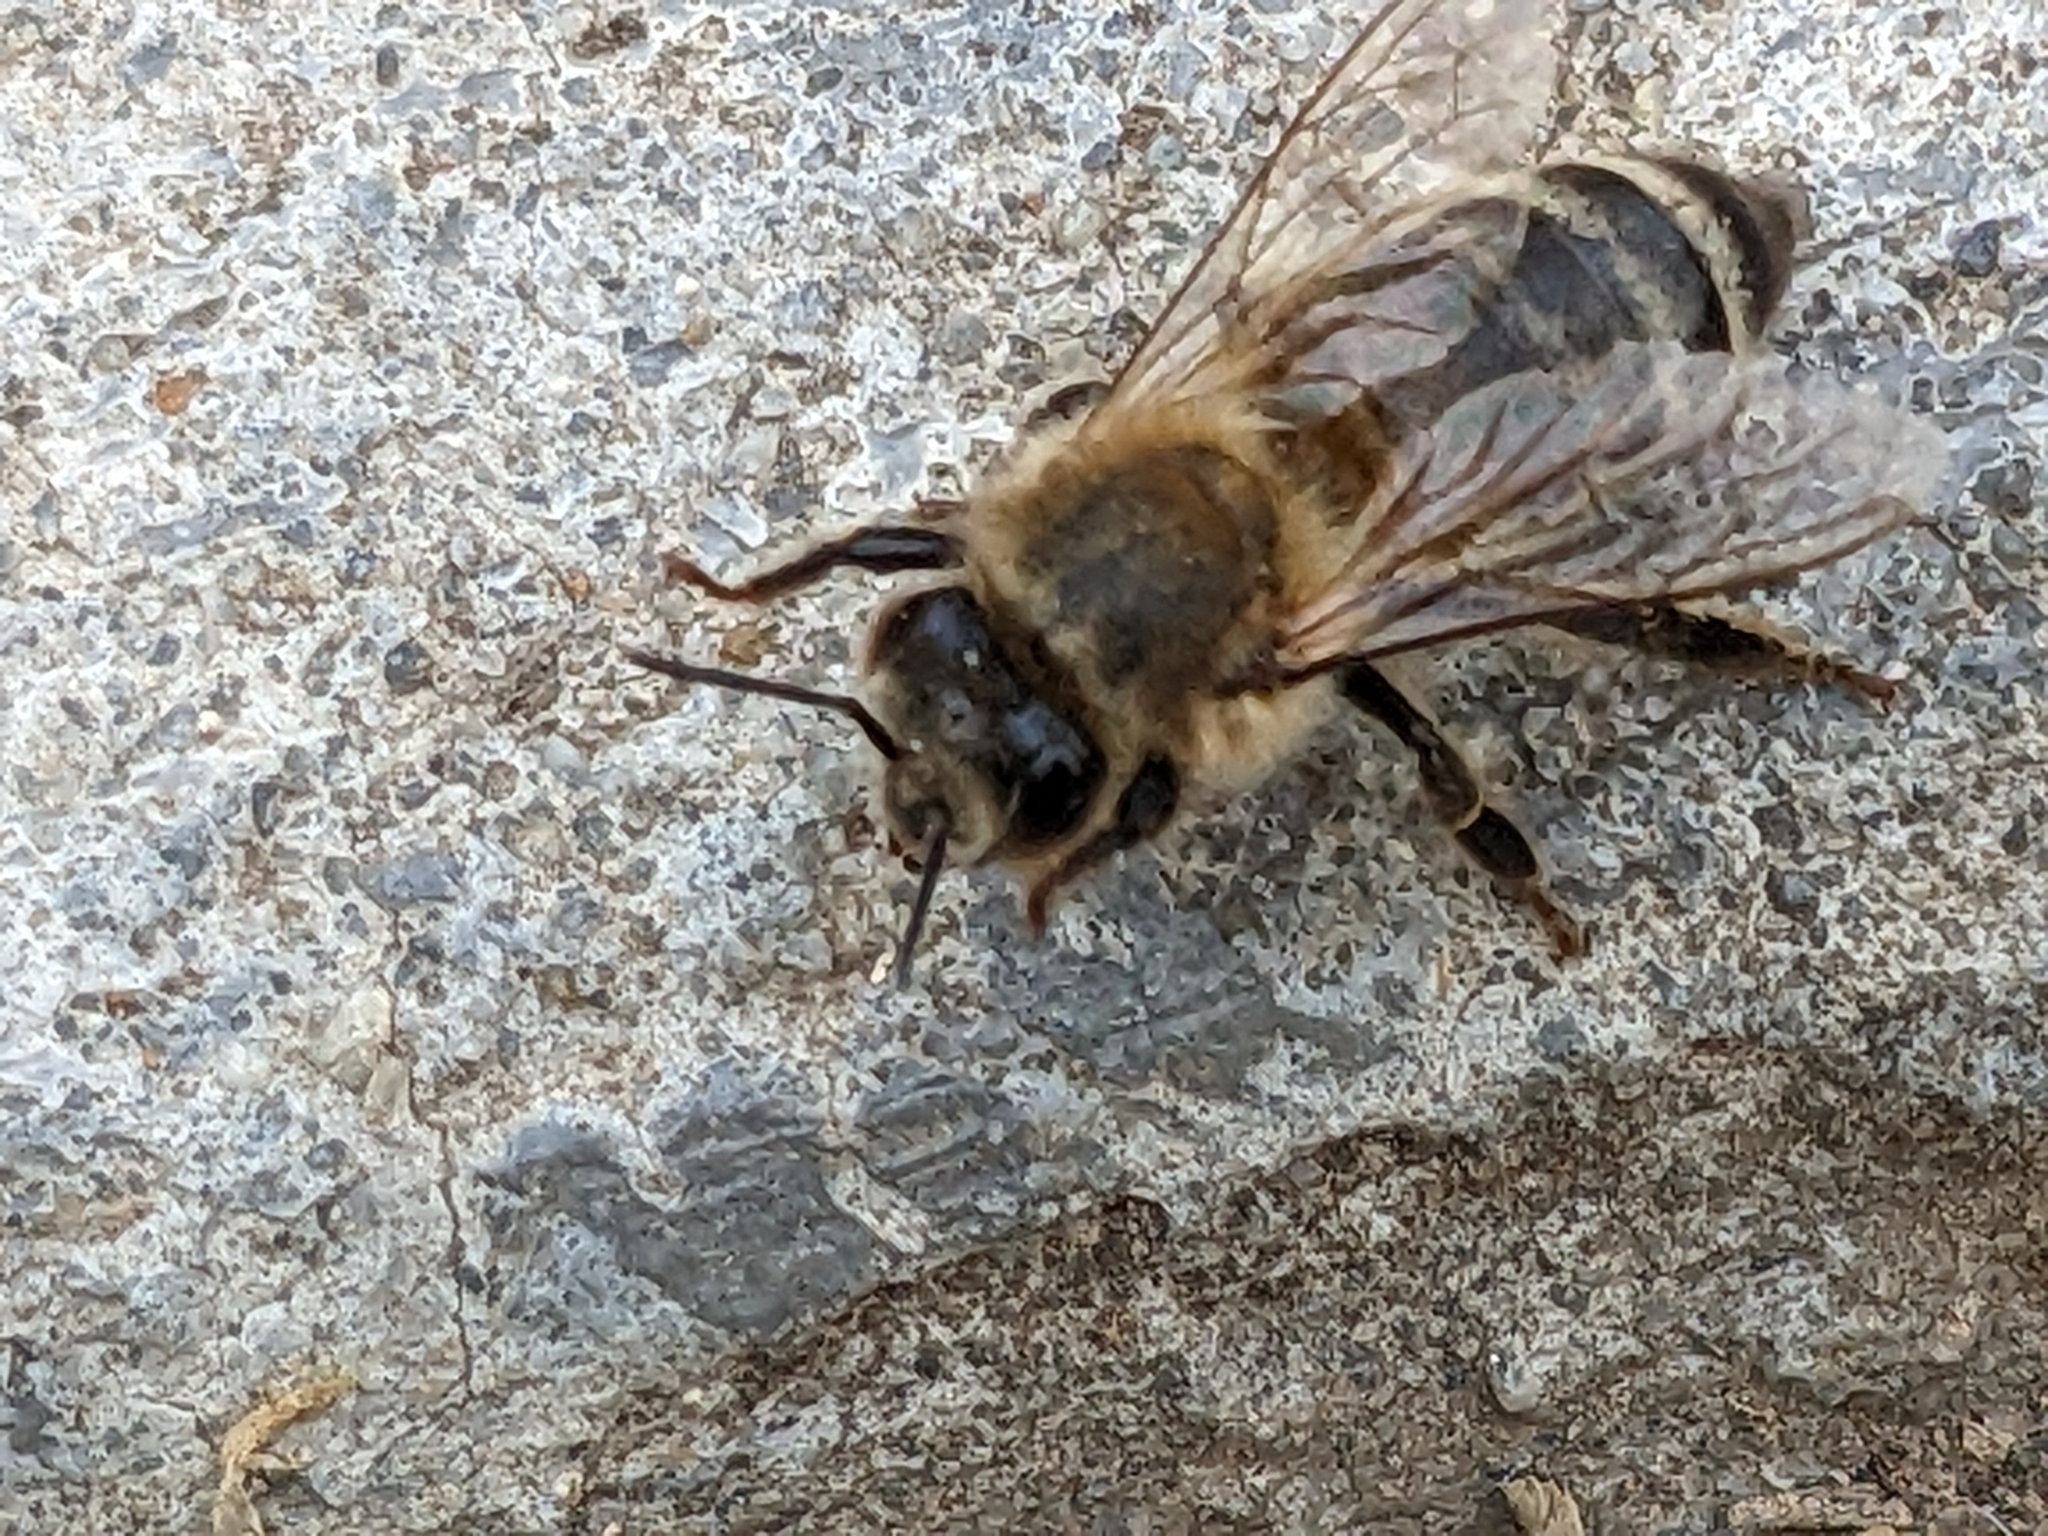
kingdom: Animalia
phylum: Arthropoda
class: Insecta
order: Hymenoptera
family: Apidae
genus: Apis
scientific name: Apis mellifera
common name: Honey bee
